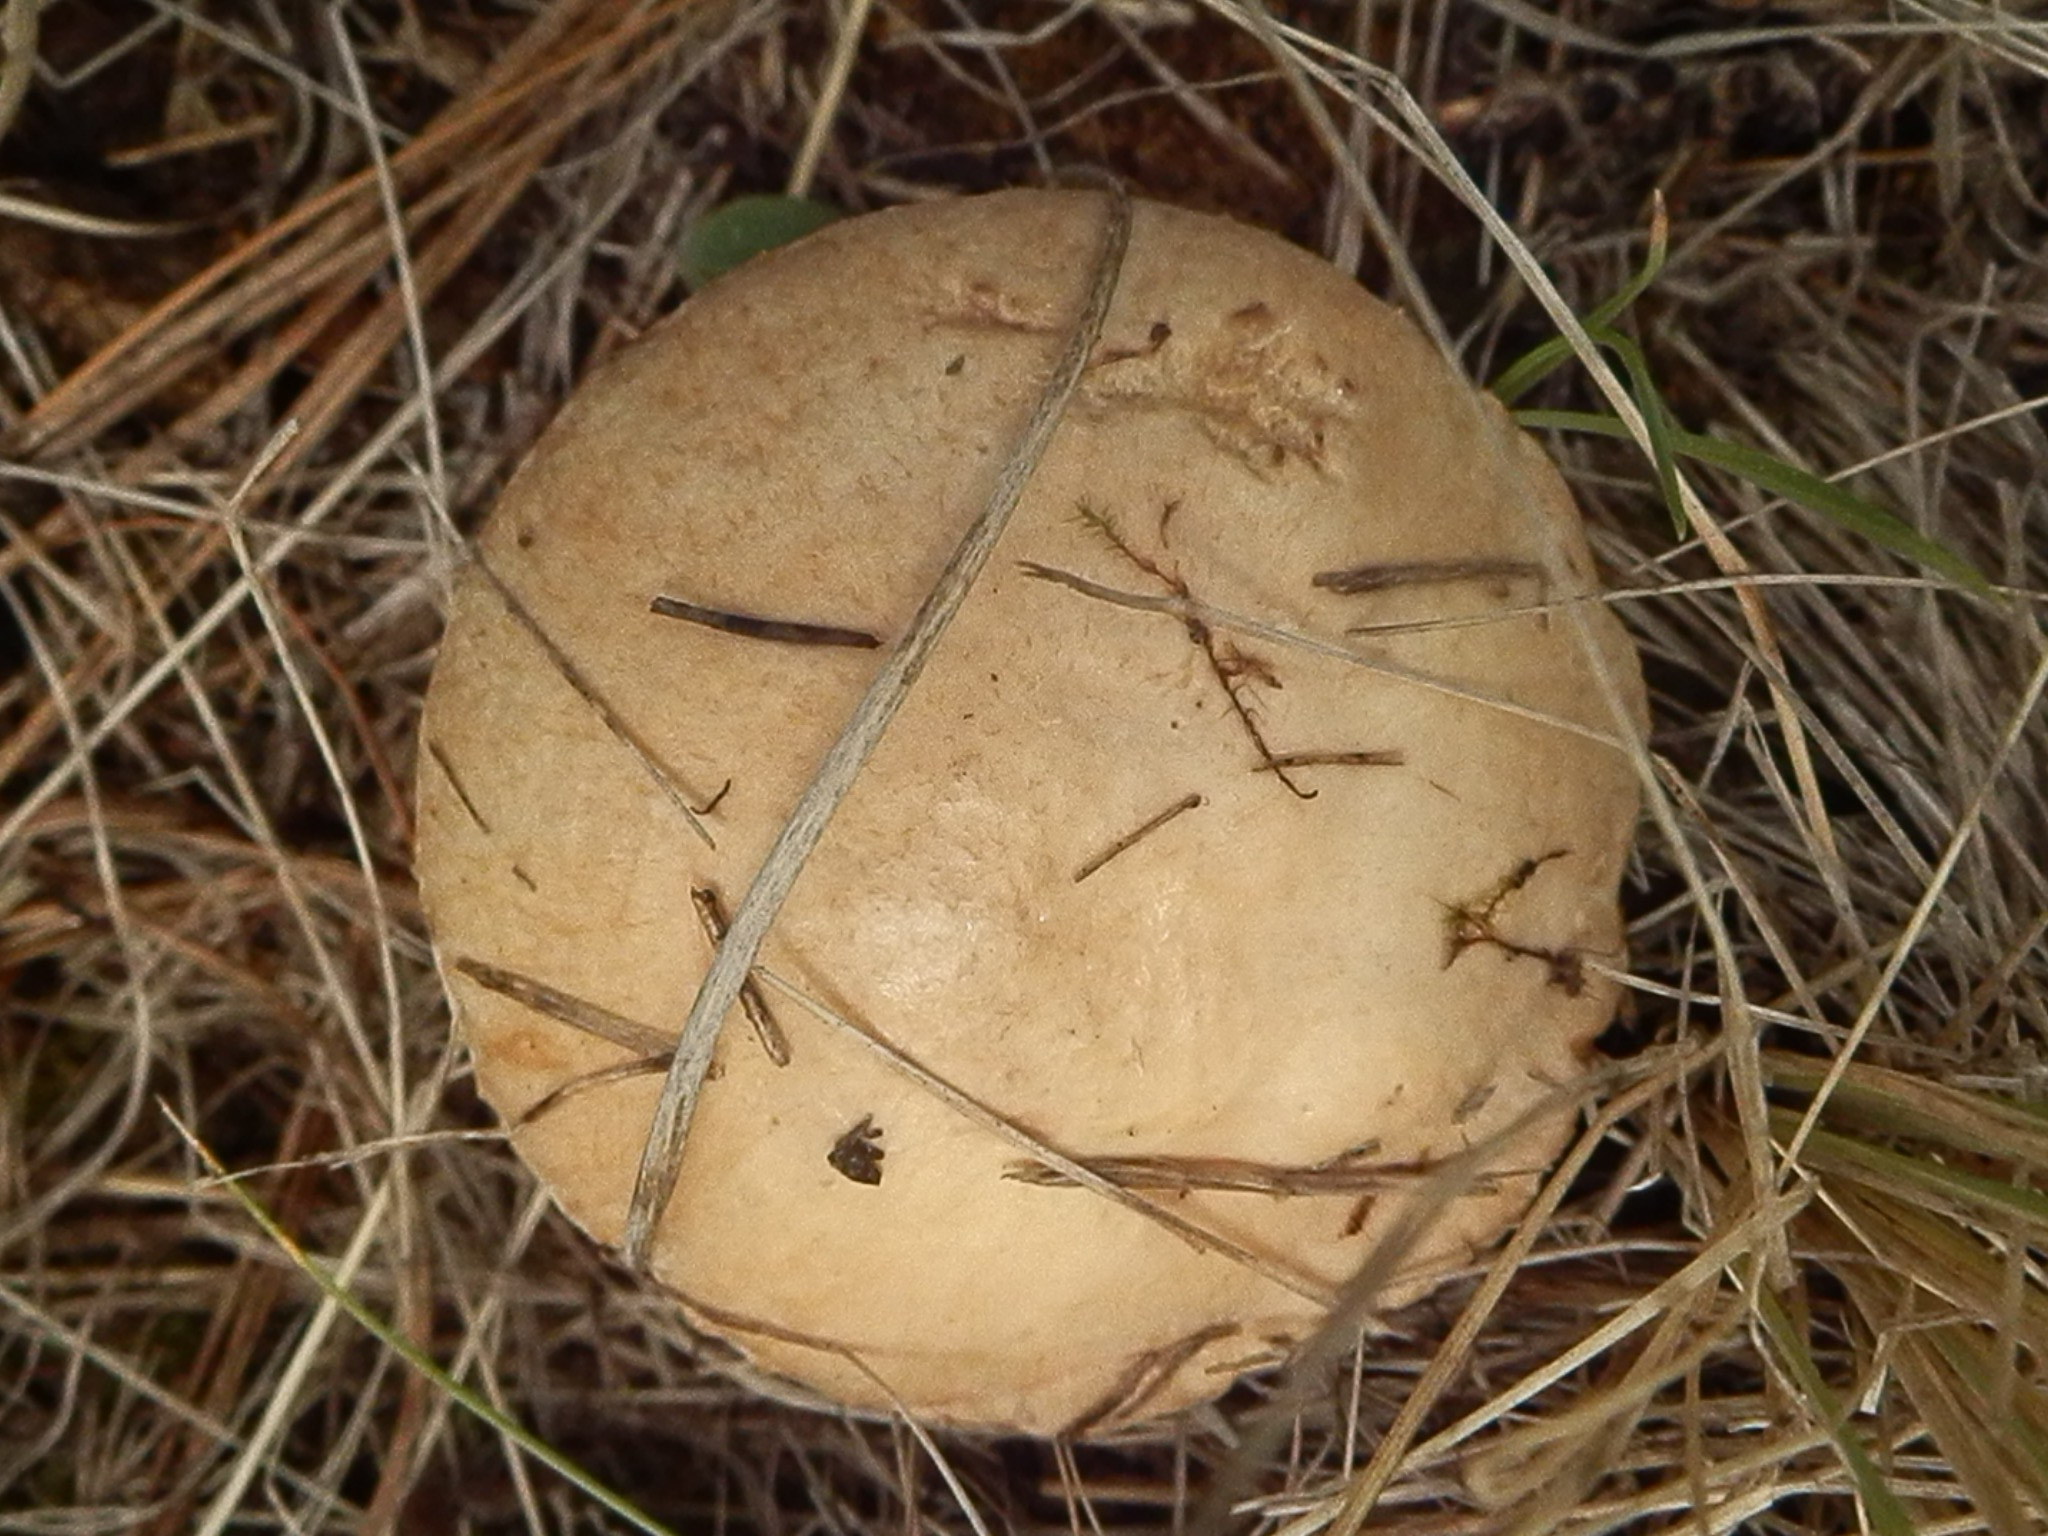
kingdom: Fungi
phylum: Basidiomycota
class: Agaricomycetes
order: Boletales
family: Suillaceae
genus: Suillus
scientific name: Suillus occidentalis
